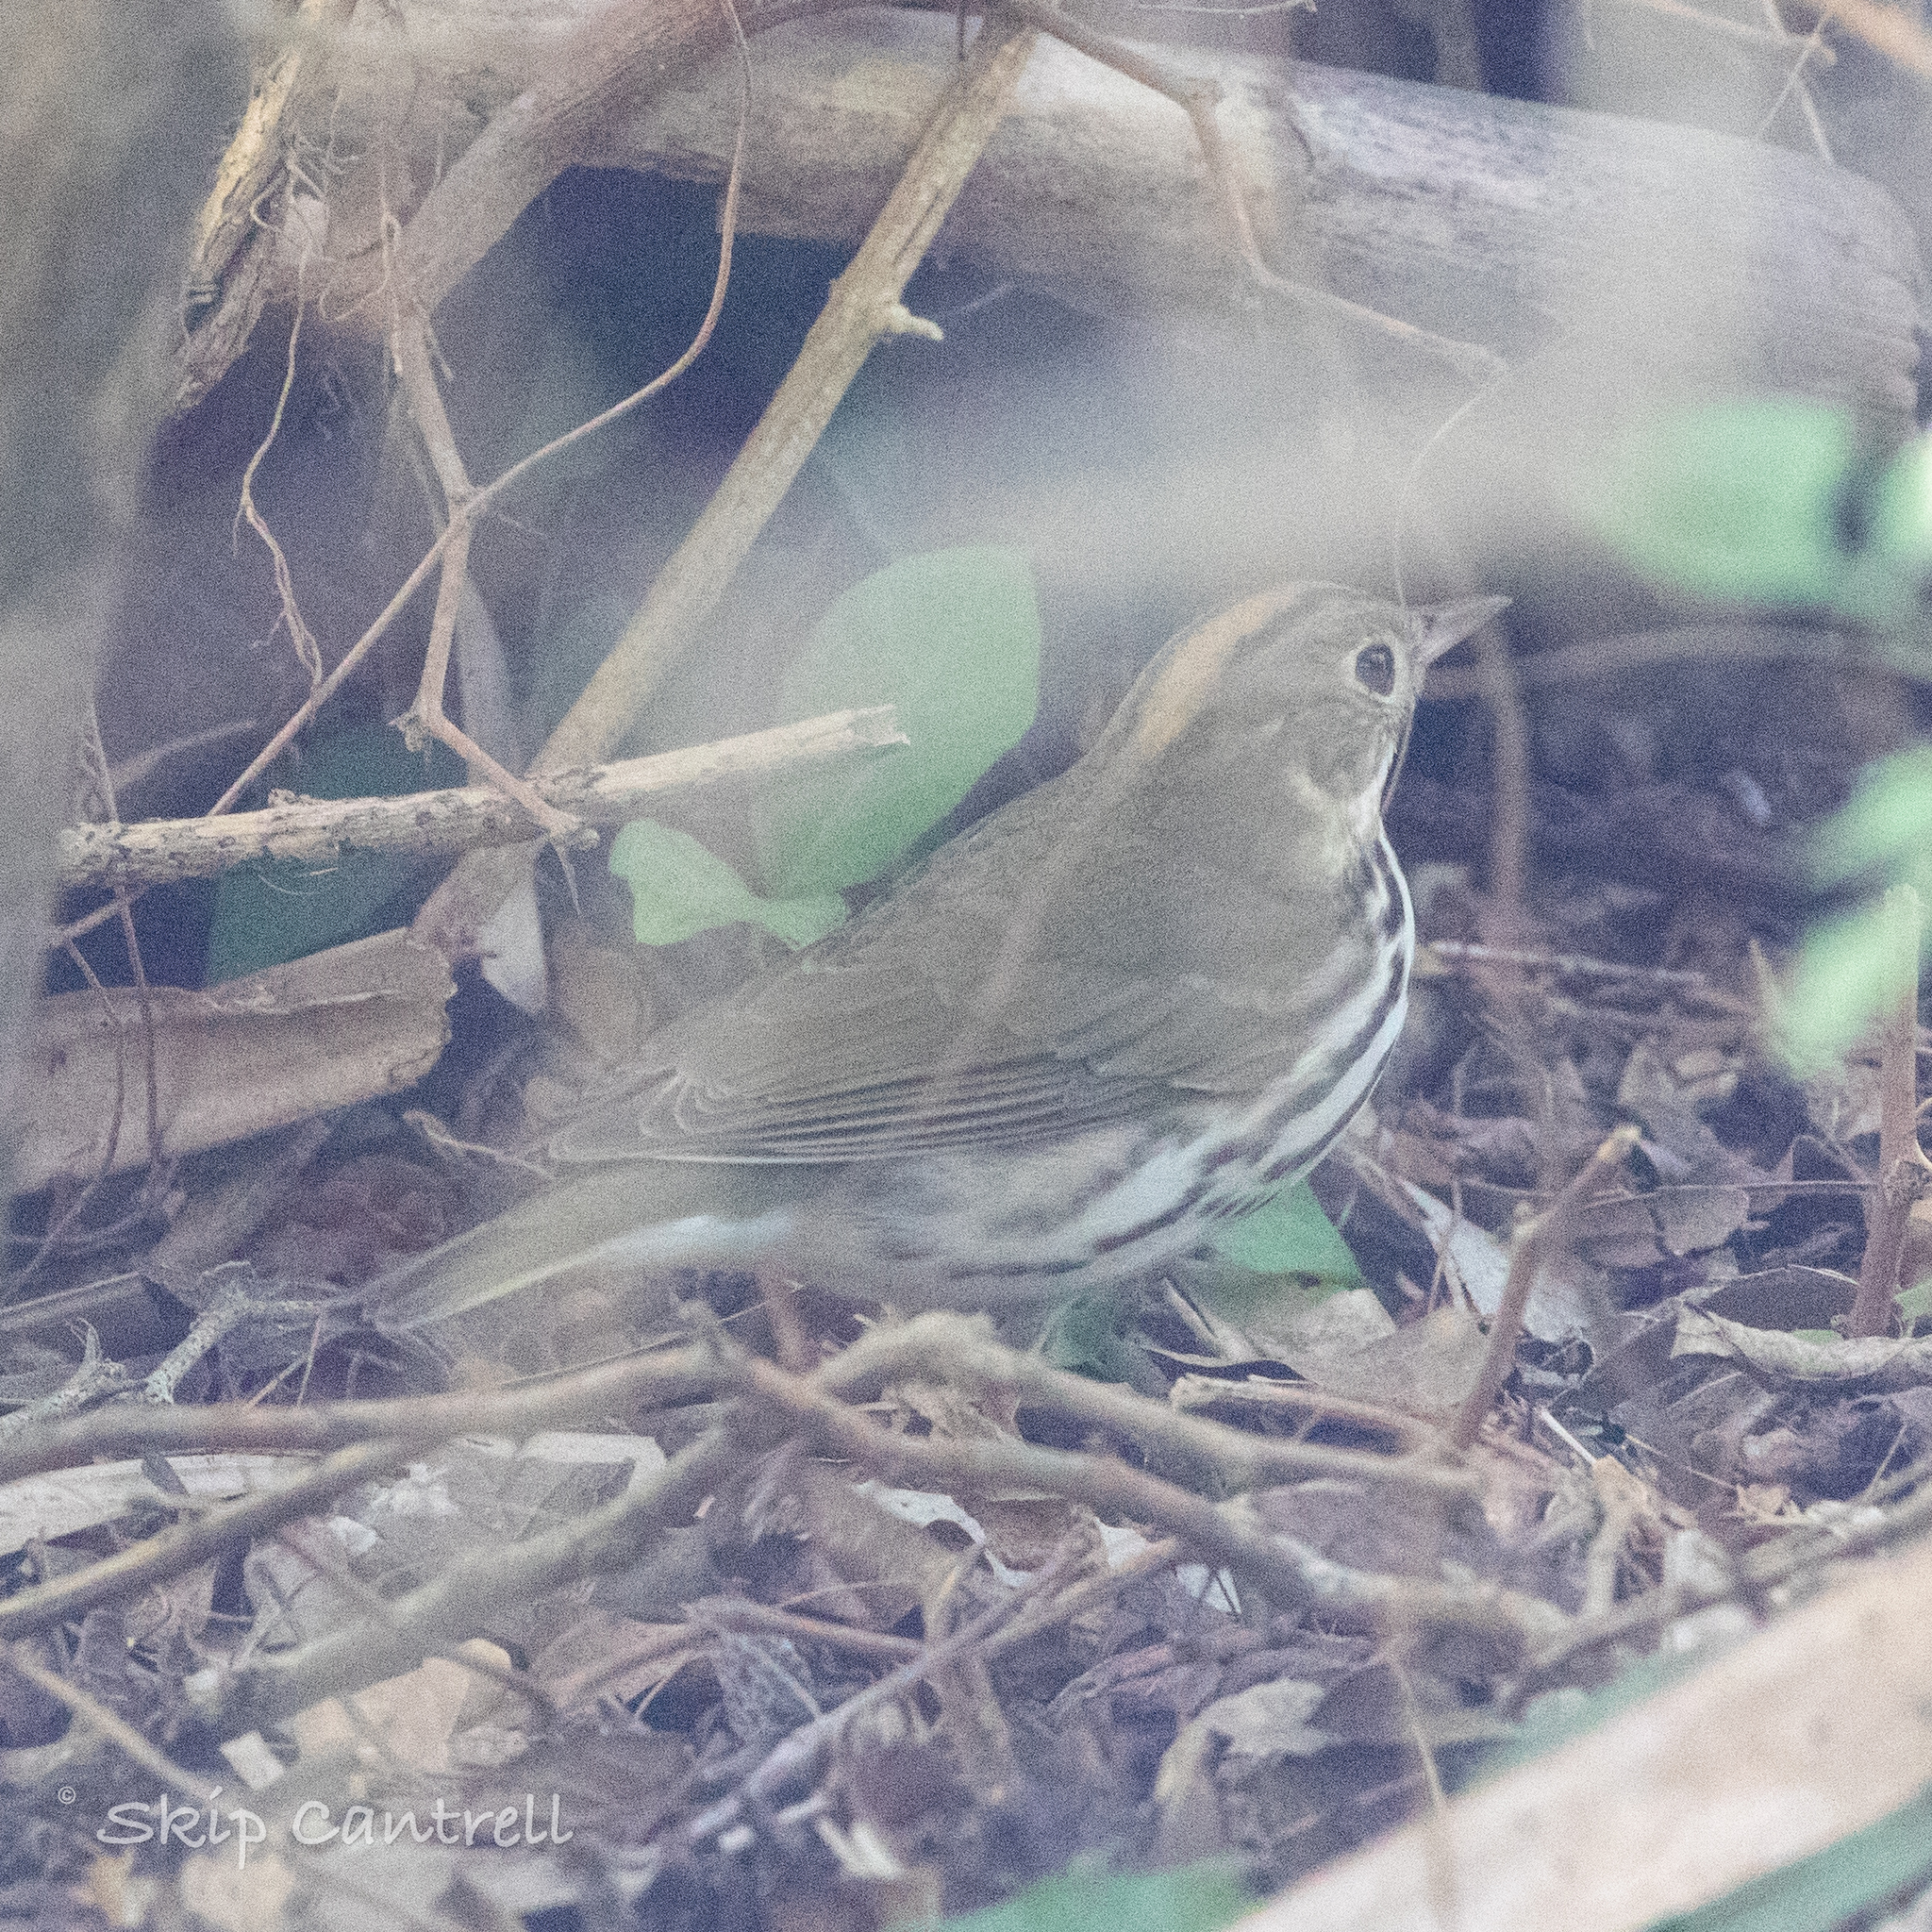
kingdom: Animalia
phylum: Chordata
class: Aves
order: Passeriformes
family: Parulidae
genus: Seiurus
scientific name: Seiurus aurocapilla
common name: Ovenbird
